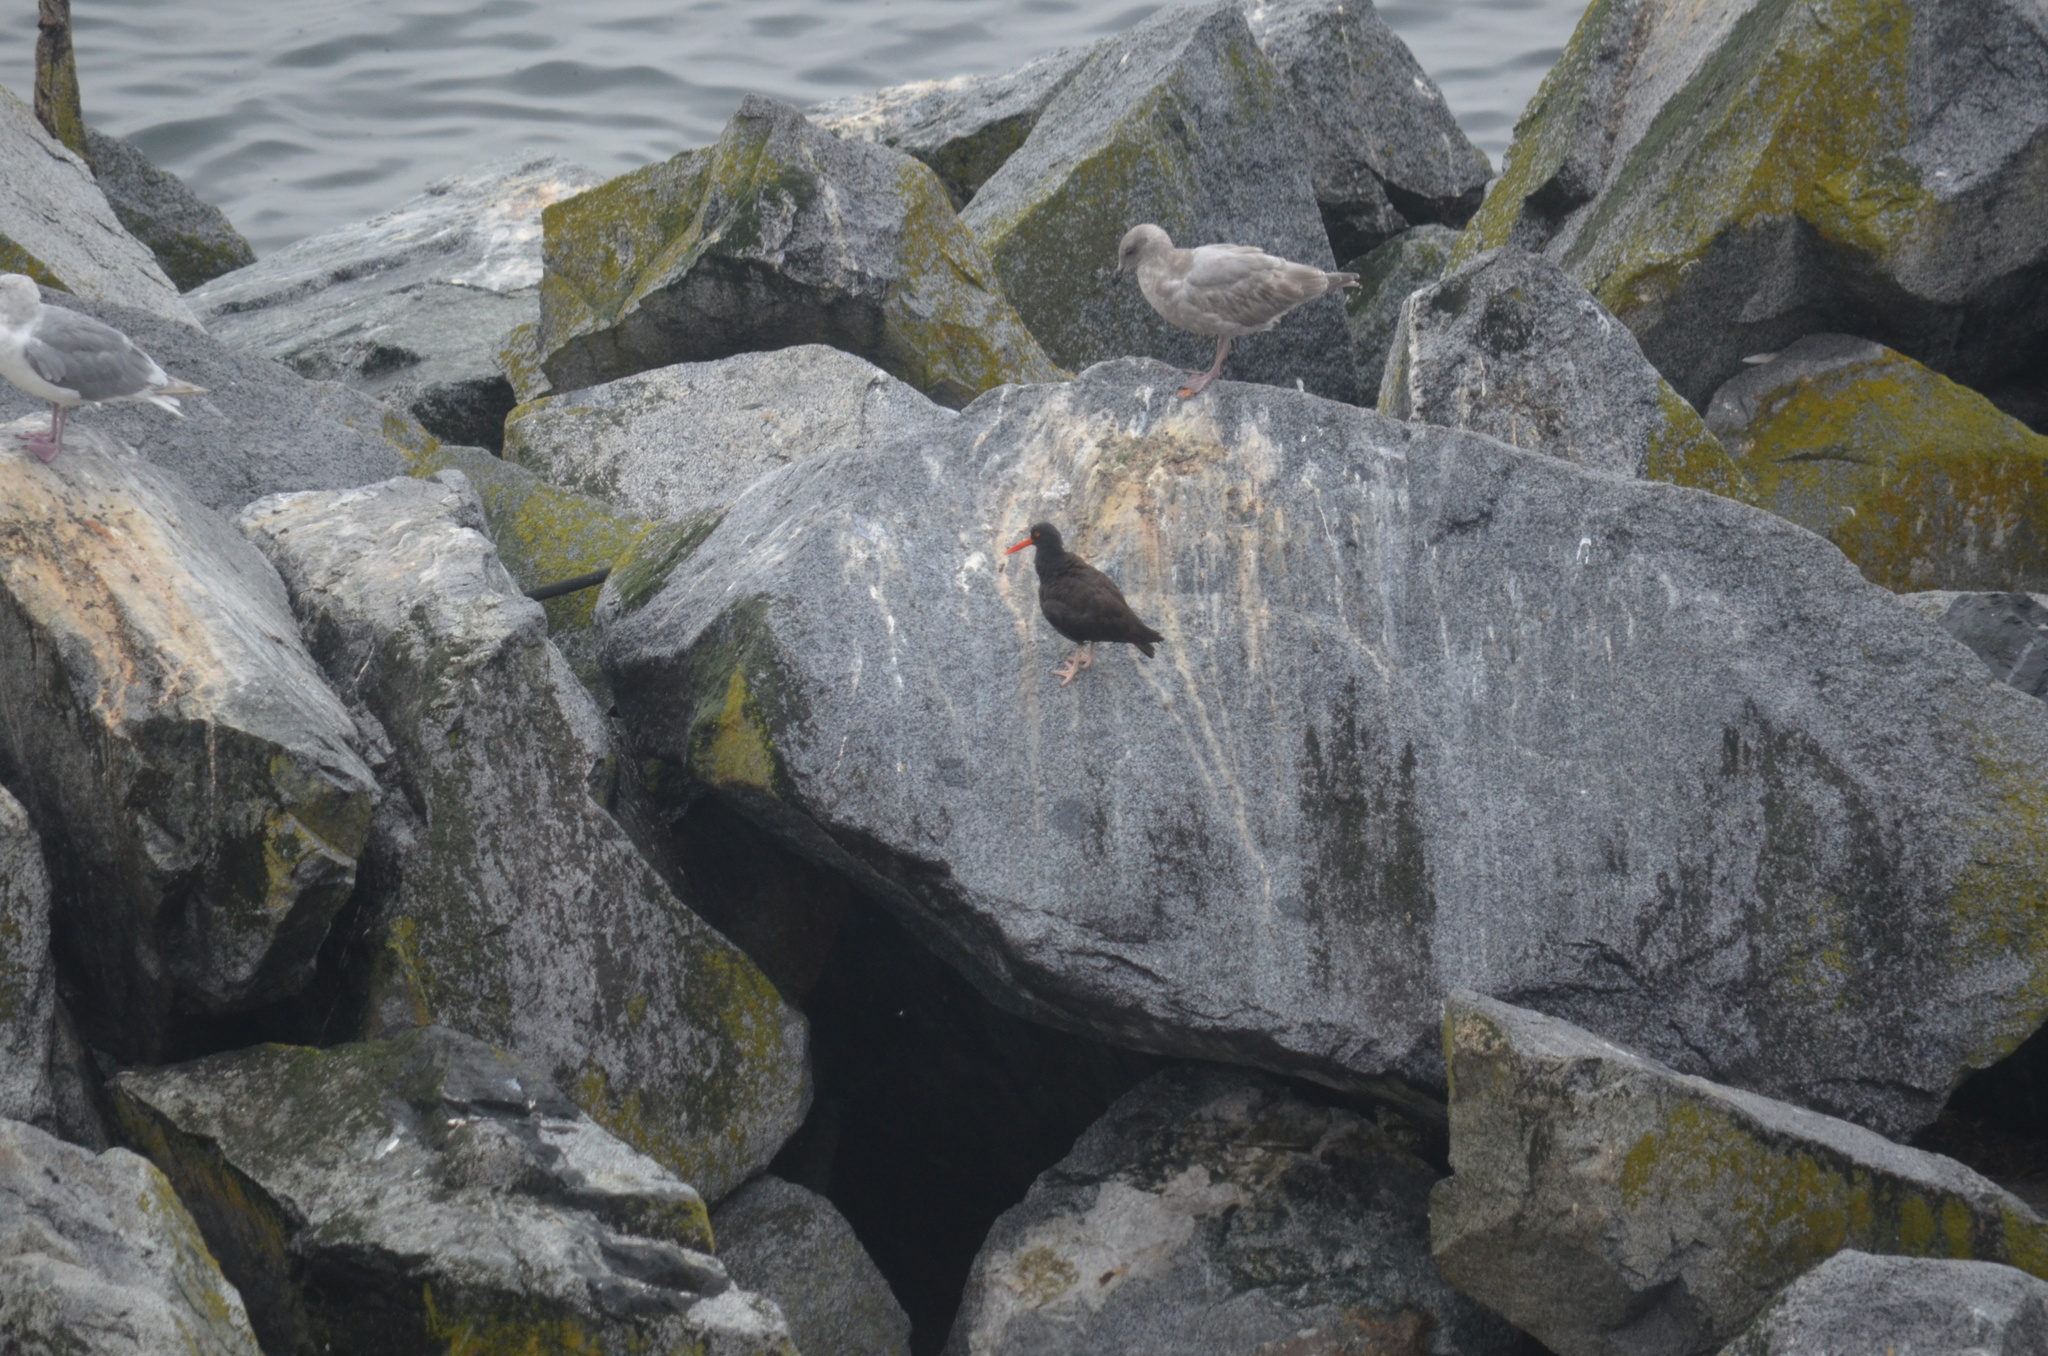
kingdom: Animalia
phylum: Chordata
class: Aves
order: Charadriiformes
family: Haematopodidae
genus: Haematopus
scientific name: Haematopus bachmani
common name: Black oystercatcher
